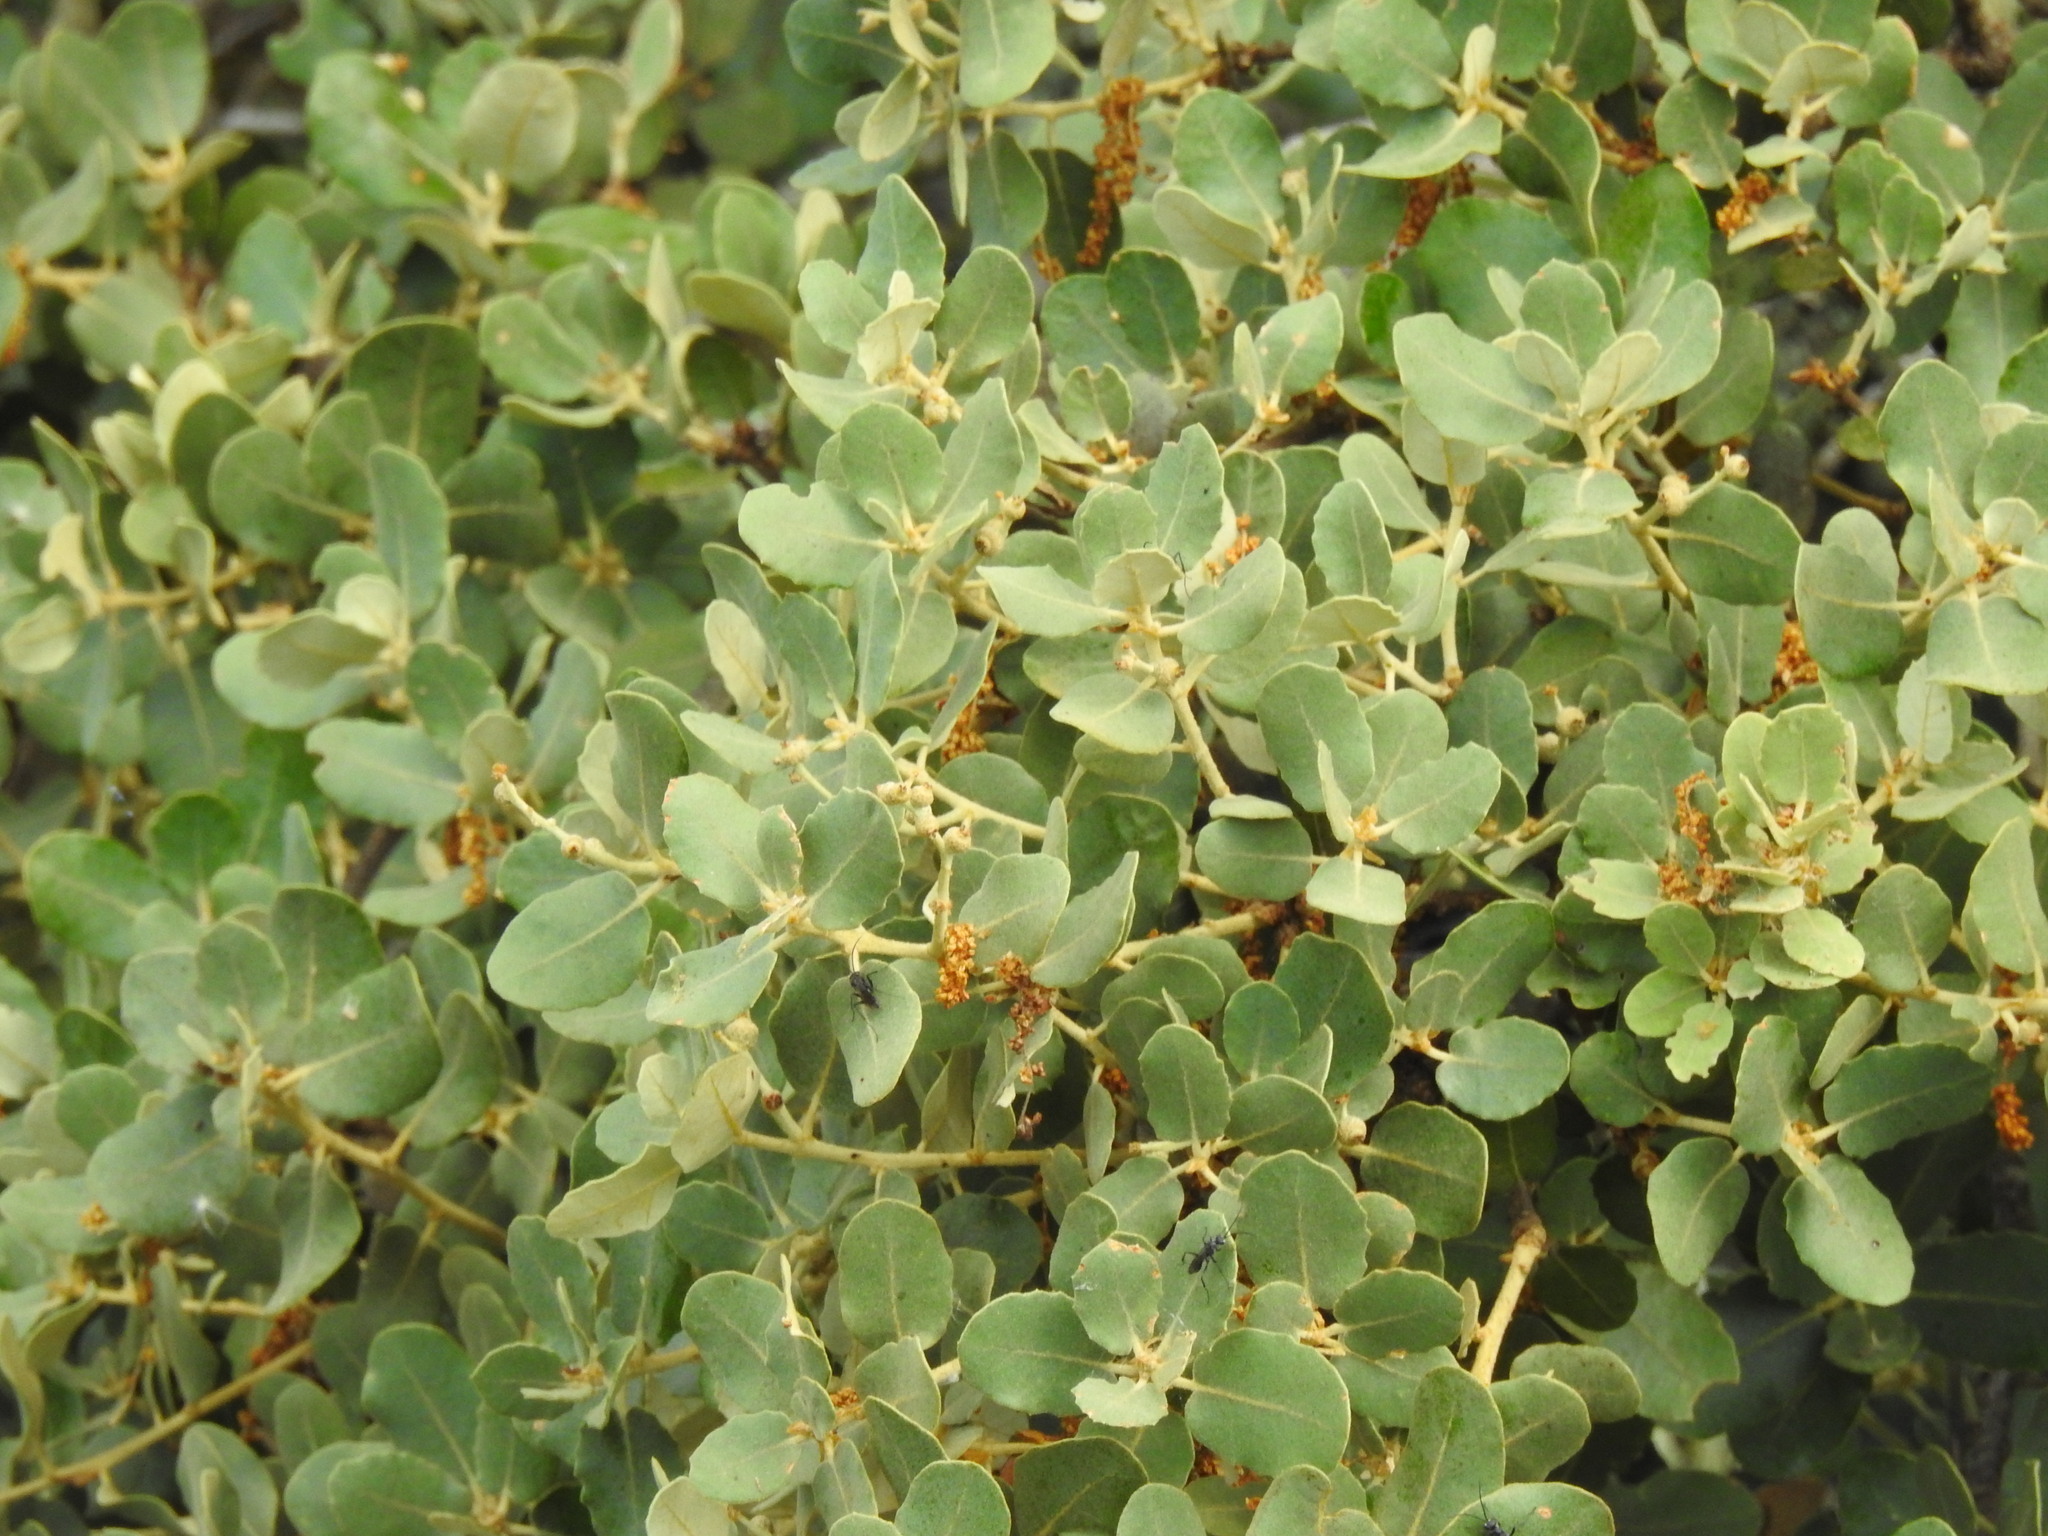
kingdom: Plantae
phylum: Tracheophyta
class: Magnoliopsida
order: Fagales
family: Fagaceae
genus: Quercus
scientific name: Quercus rotundifolia
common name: Holm oak
